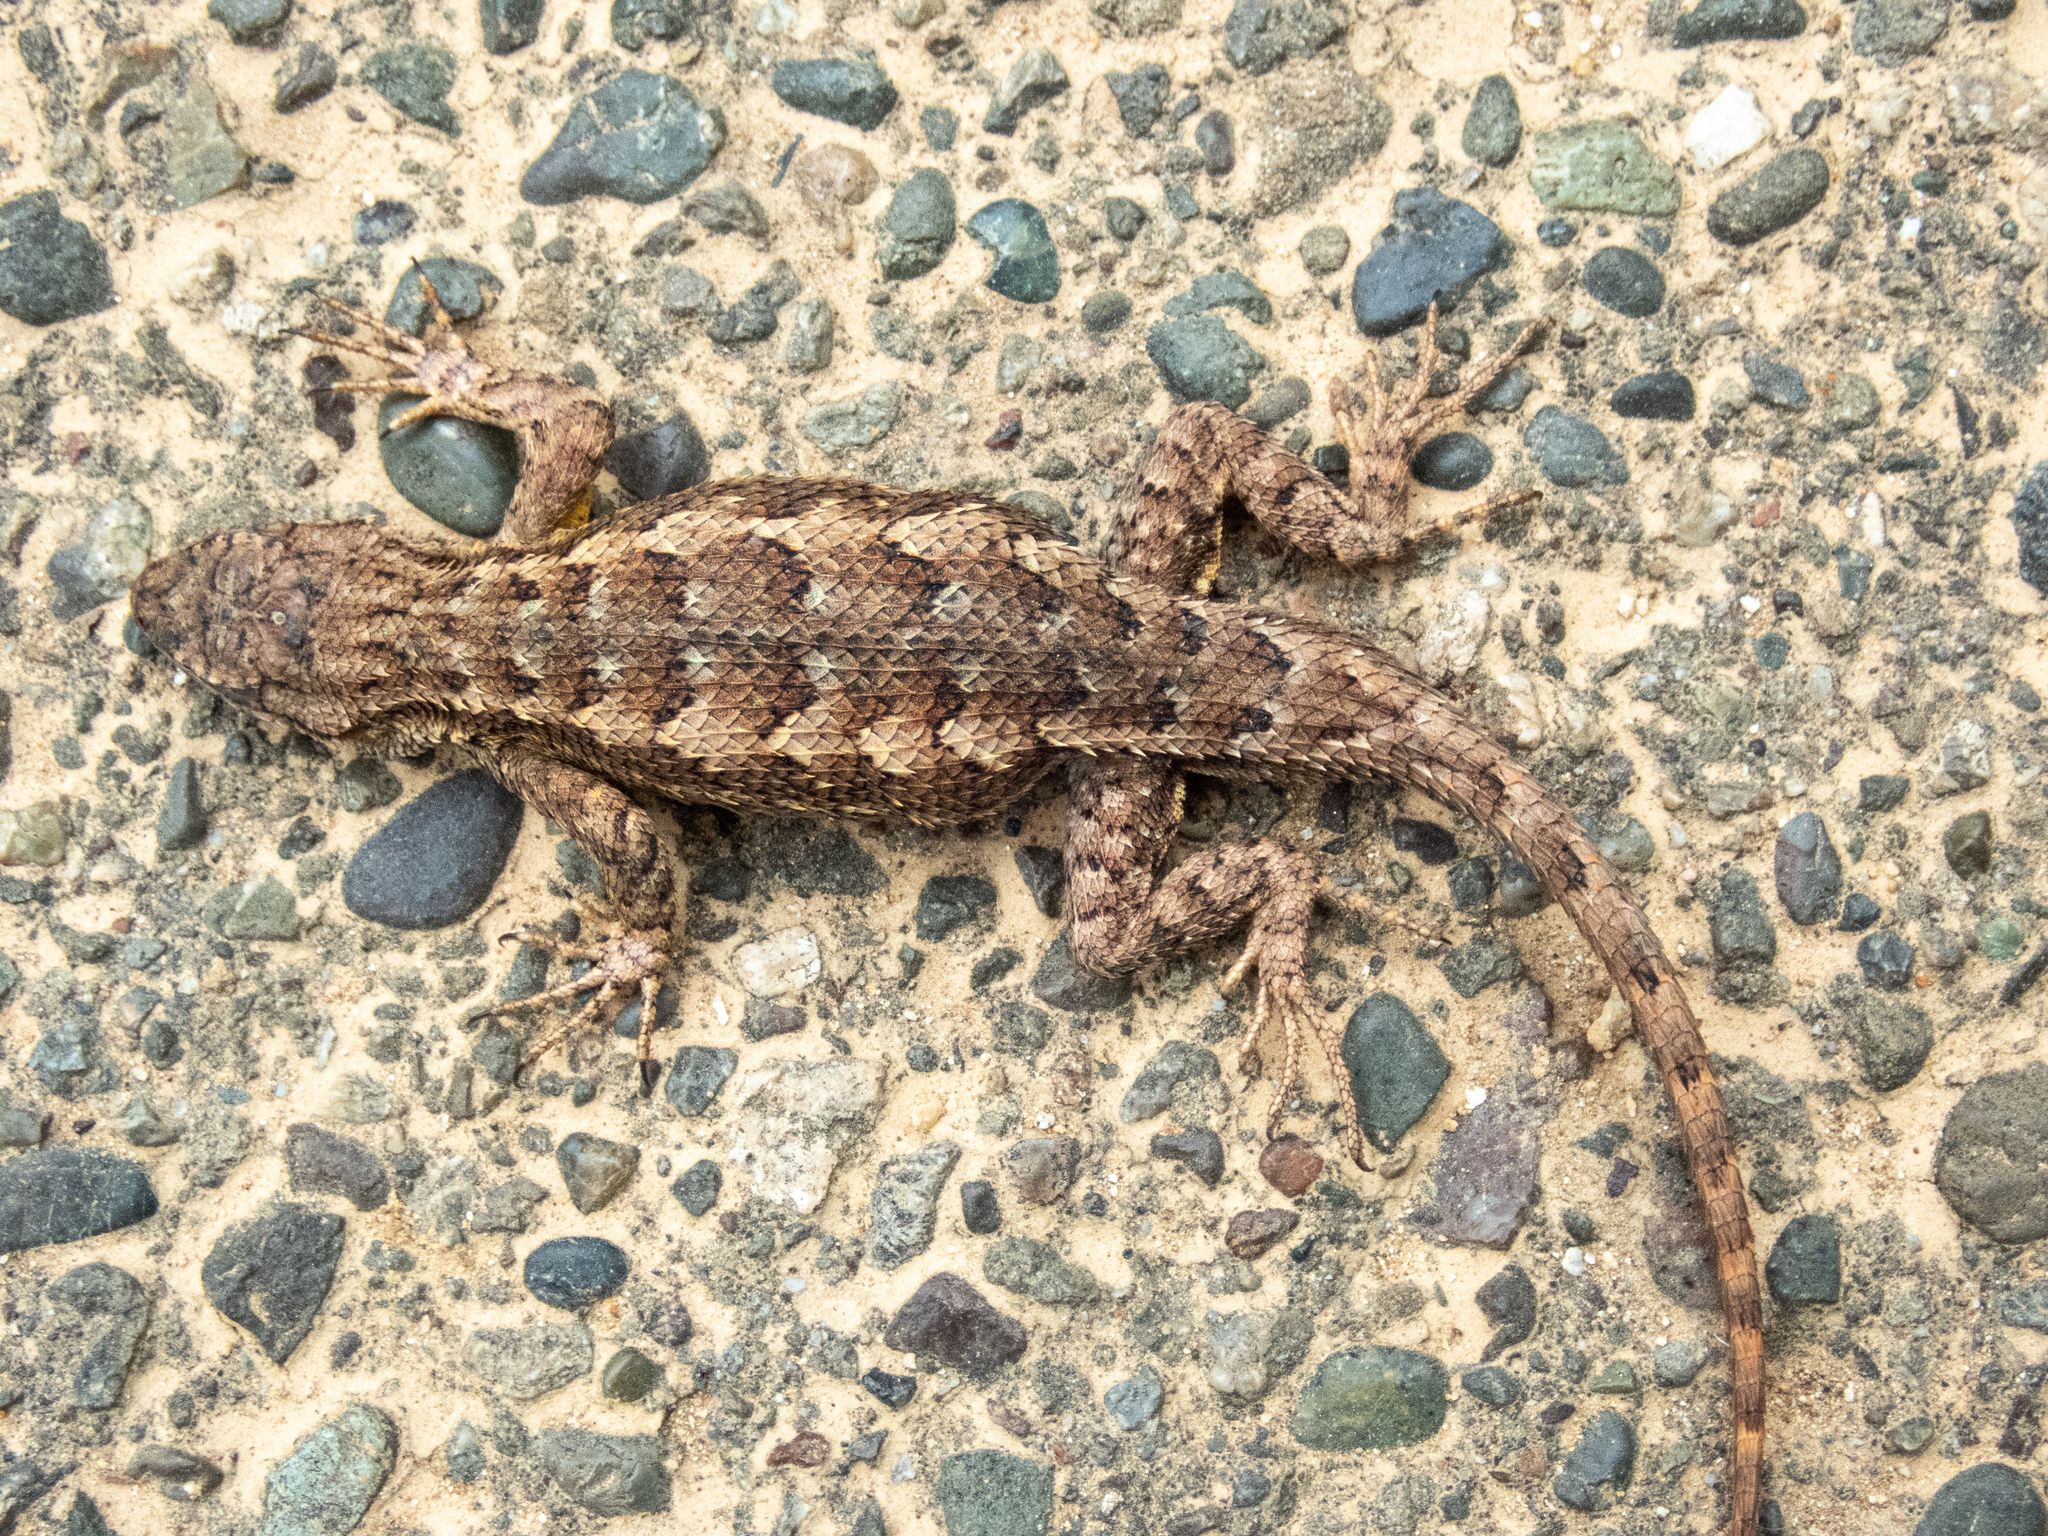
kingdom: Animalia
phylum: Chordata
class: Squamata
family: Phrynosomatidae
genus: Sceloporus
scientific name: Sceloporus occidentalis
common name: Western fence lizard
